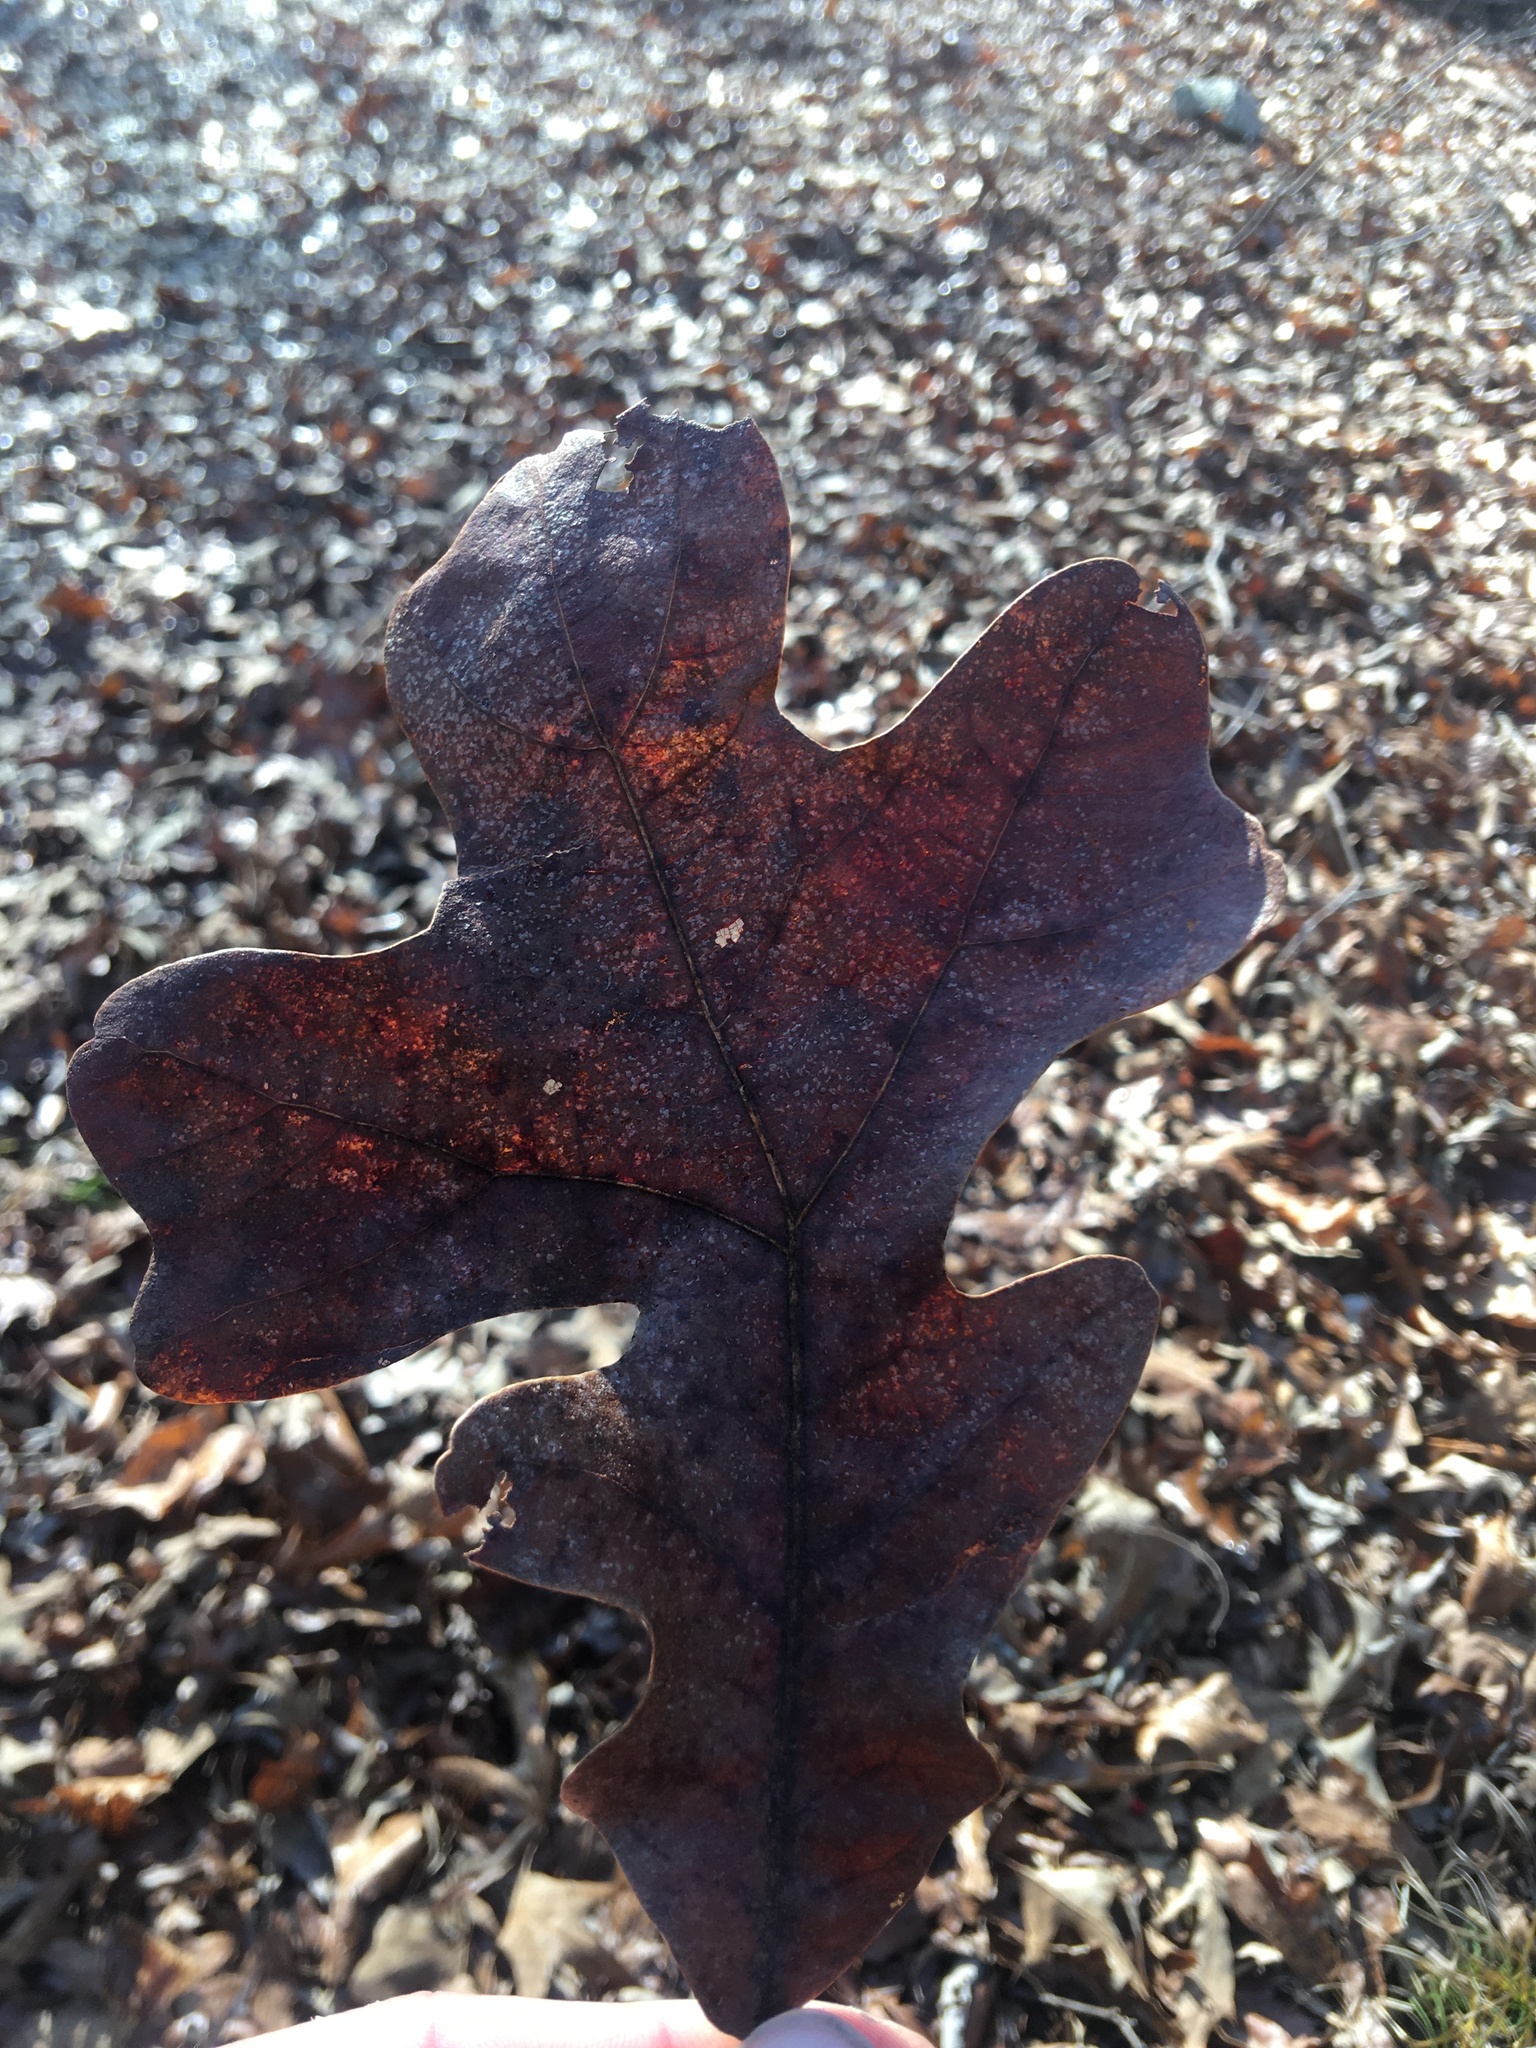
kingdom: Plantae
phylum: Tracheophyta
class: Magnoliopsida
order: Fagales
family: Fagaceae
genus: Quercus
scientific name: Quercus stellata
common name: Post oak
